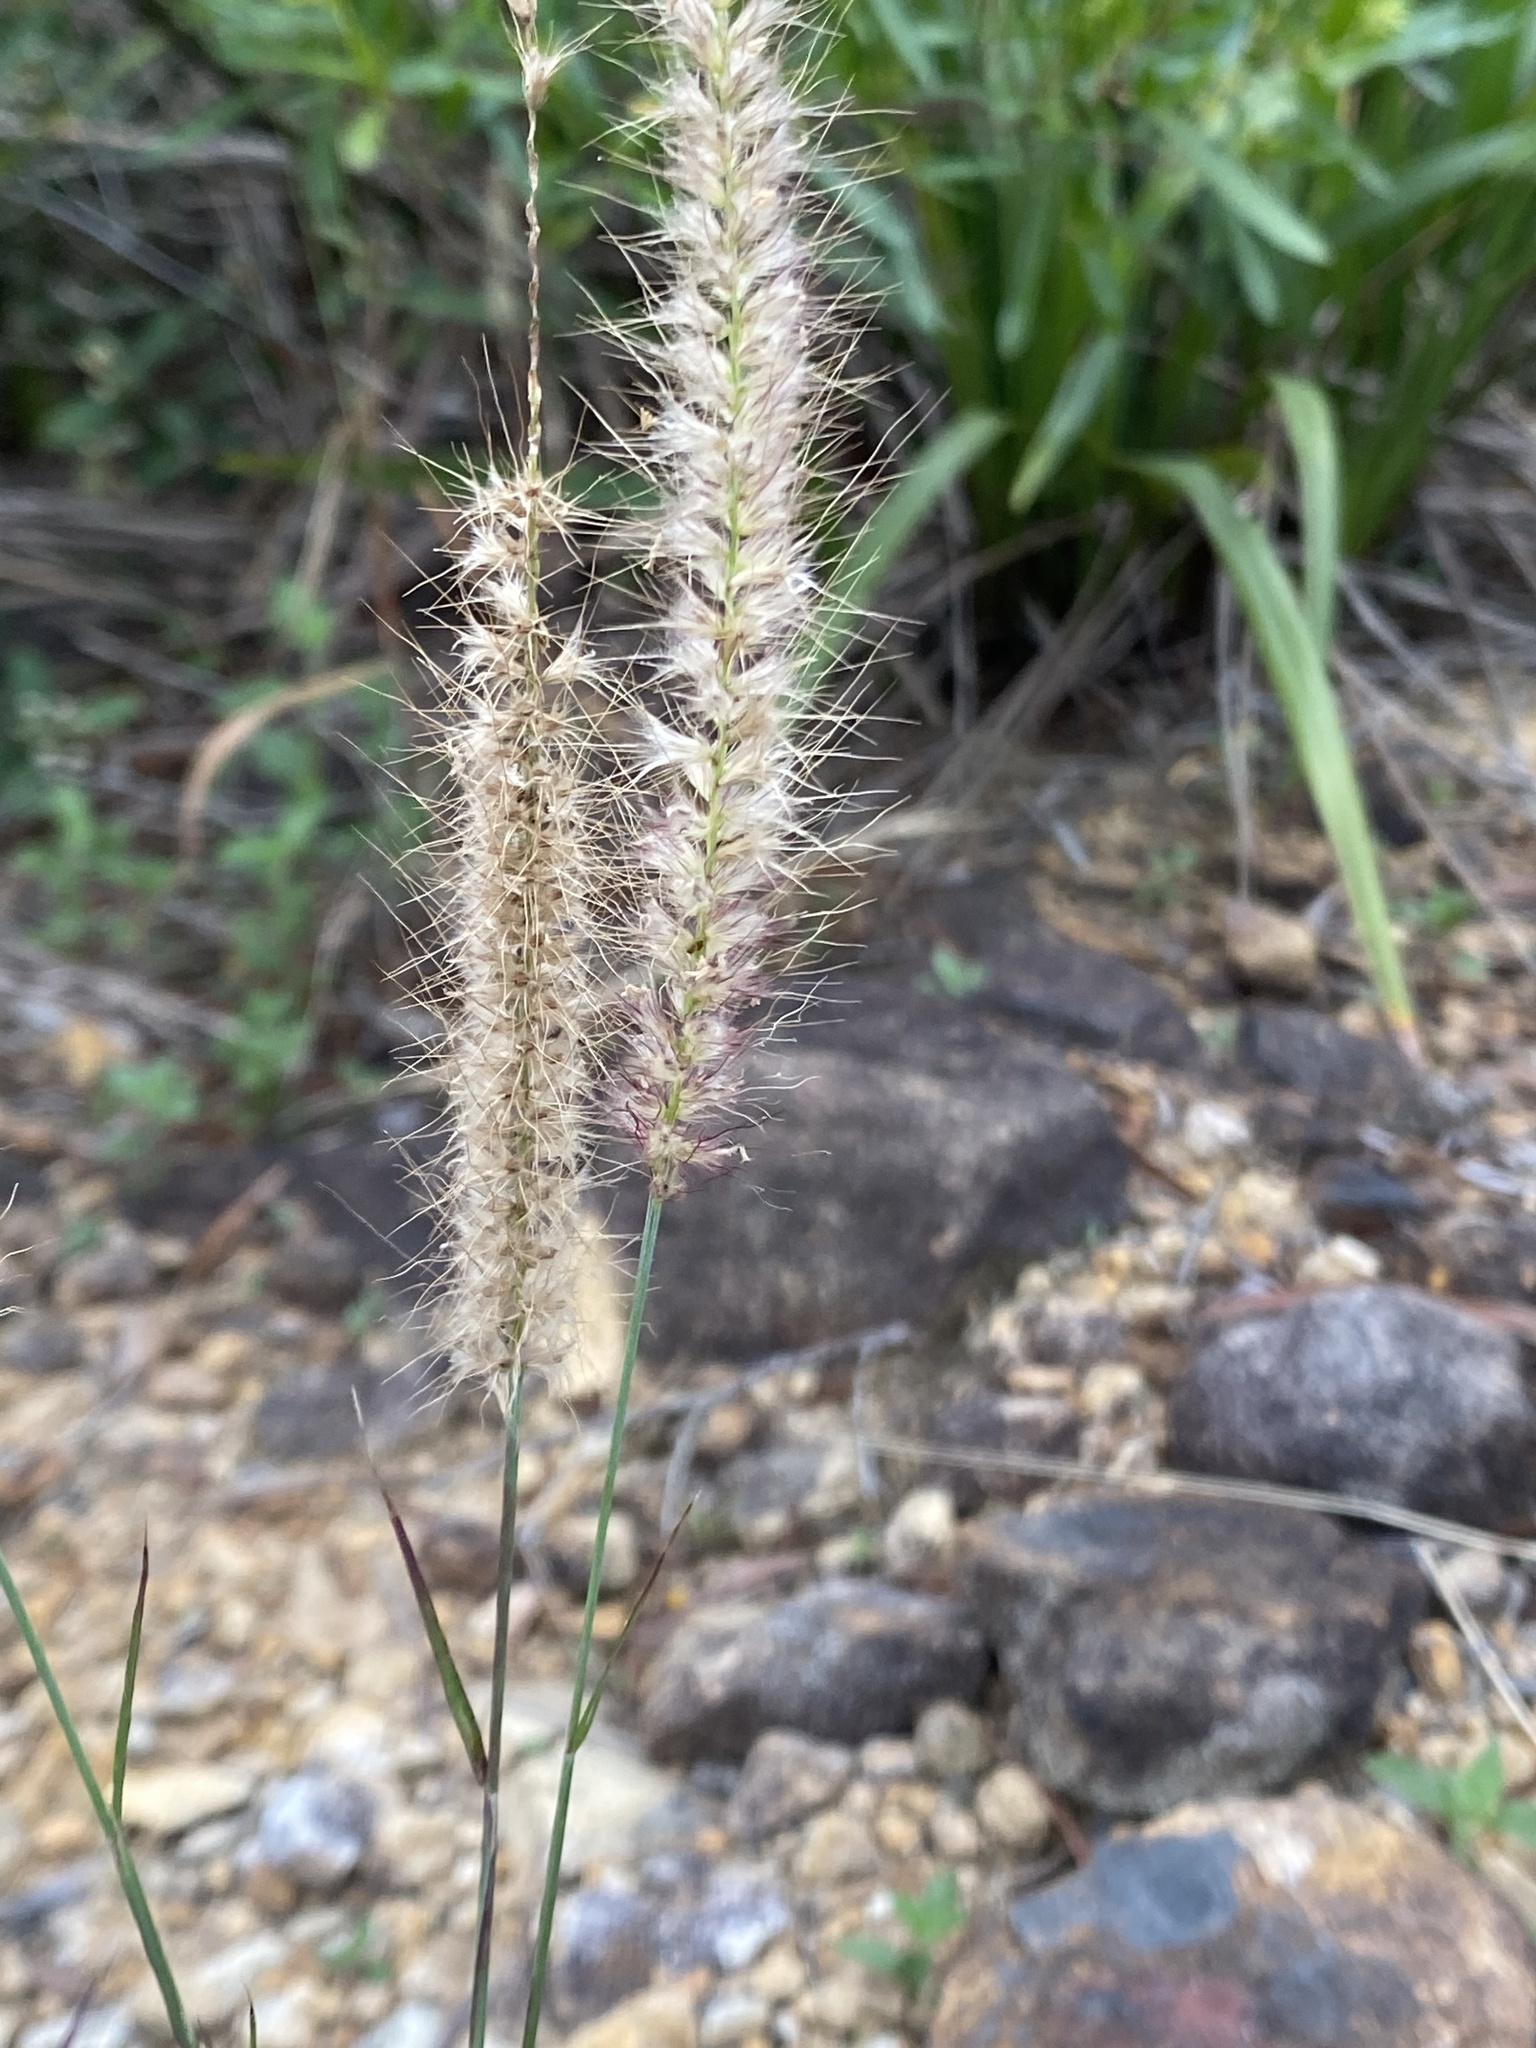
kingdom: Plantae
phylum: Tracheophyta
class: Liliopsida
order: Poales
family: Poaceae
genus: Cenchrus
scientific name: Cenchrus setosus
